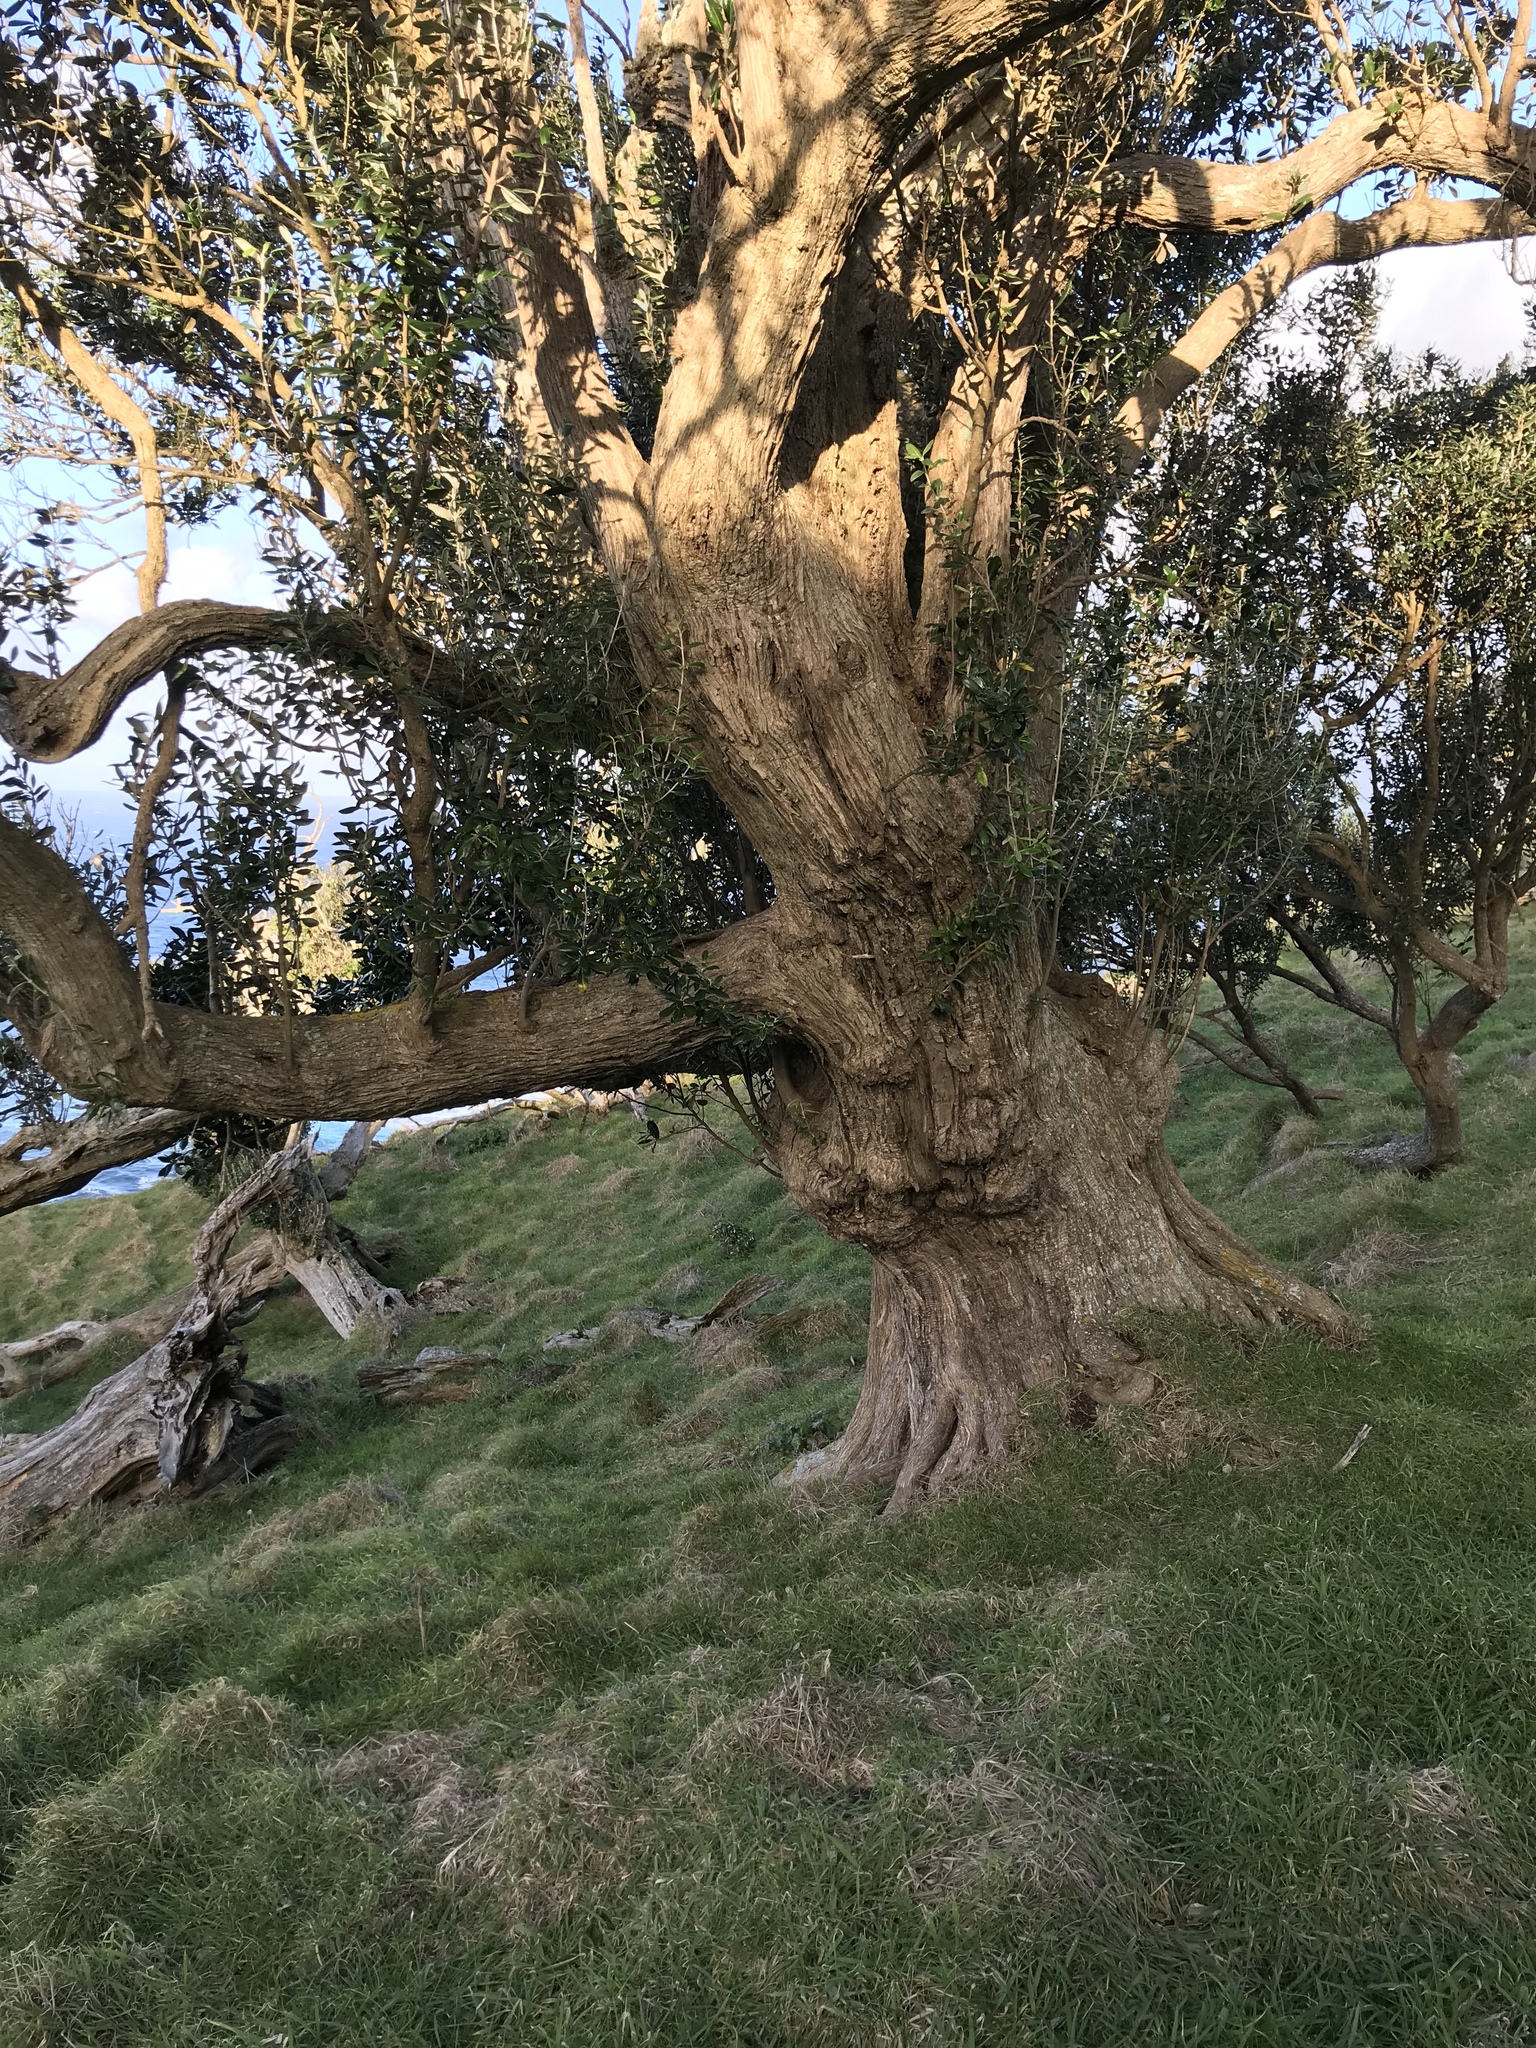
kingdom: Plantae
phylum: Tracheophyta
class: Magnoliopsida
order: Asterales
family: Asteraceae
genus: Olearia
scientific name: Olearia traversiorum
